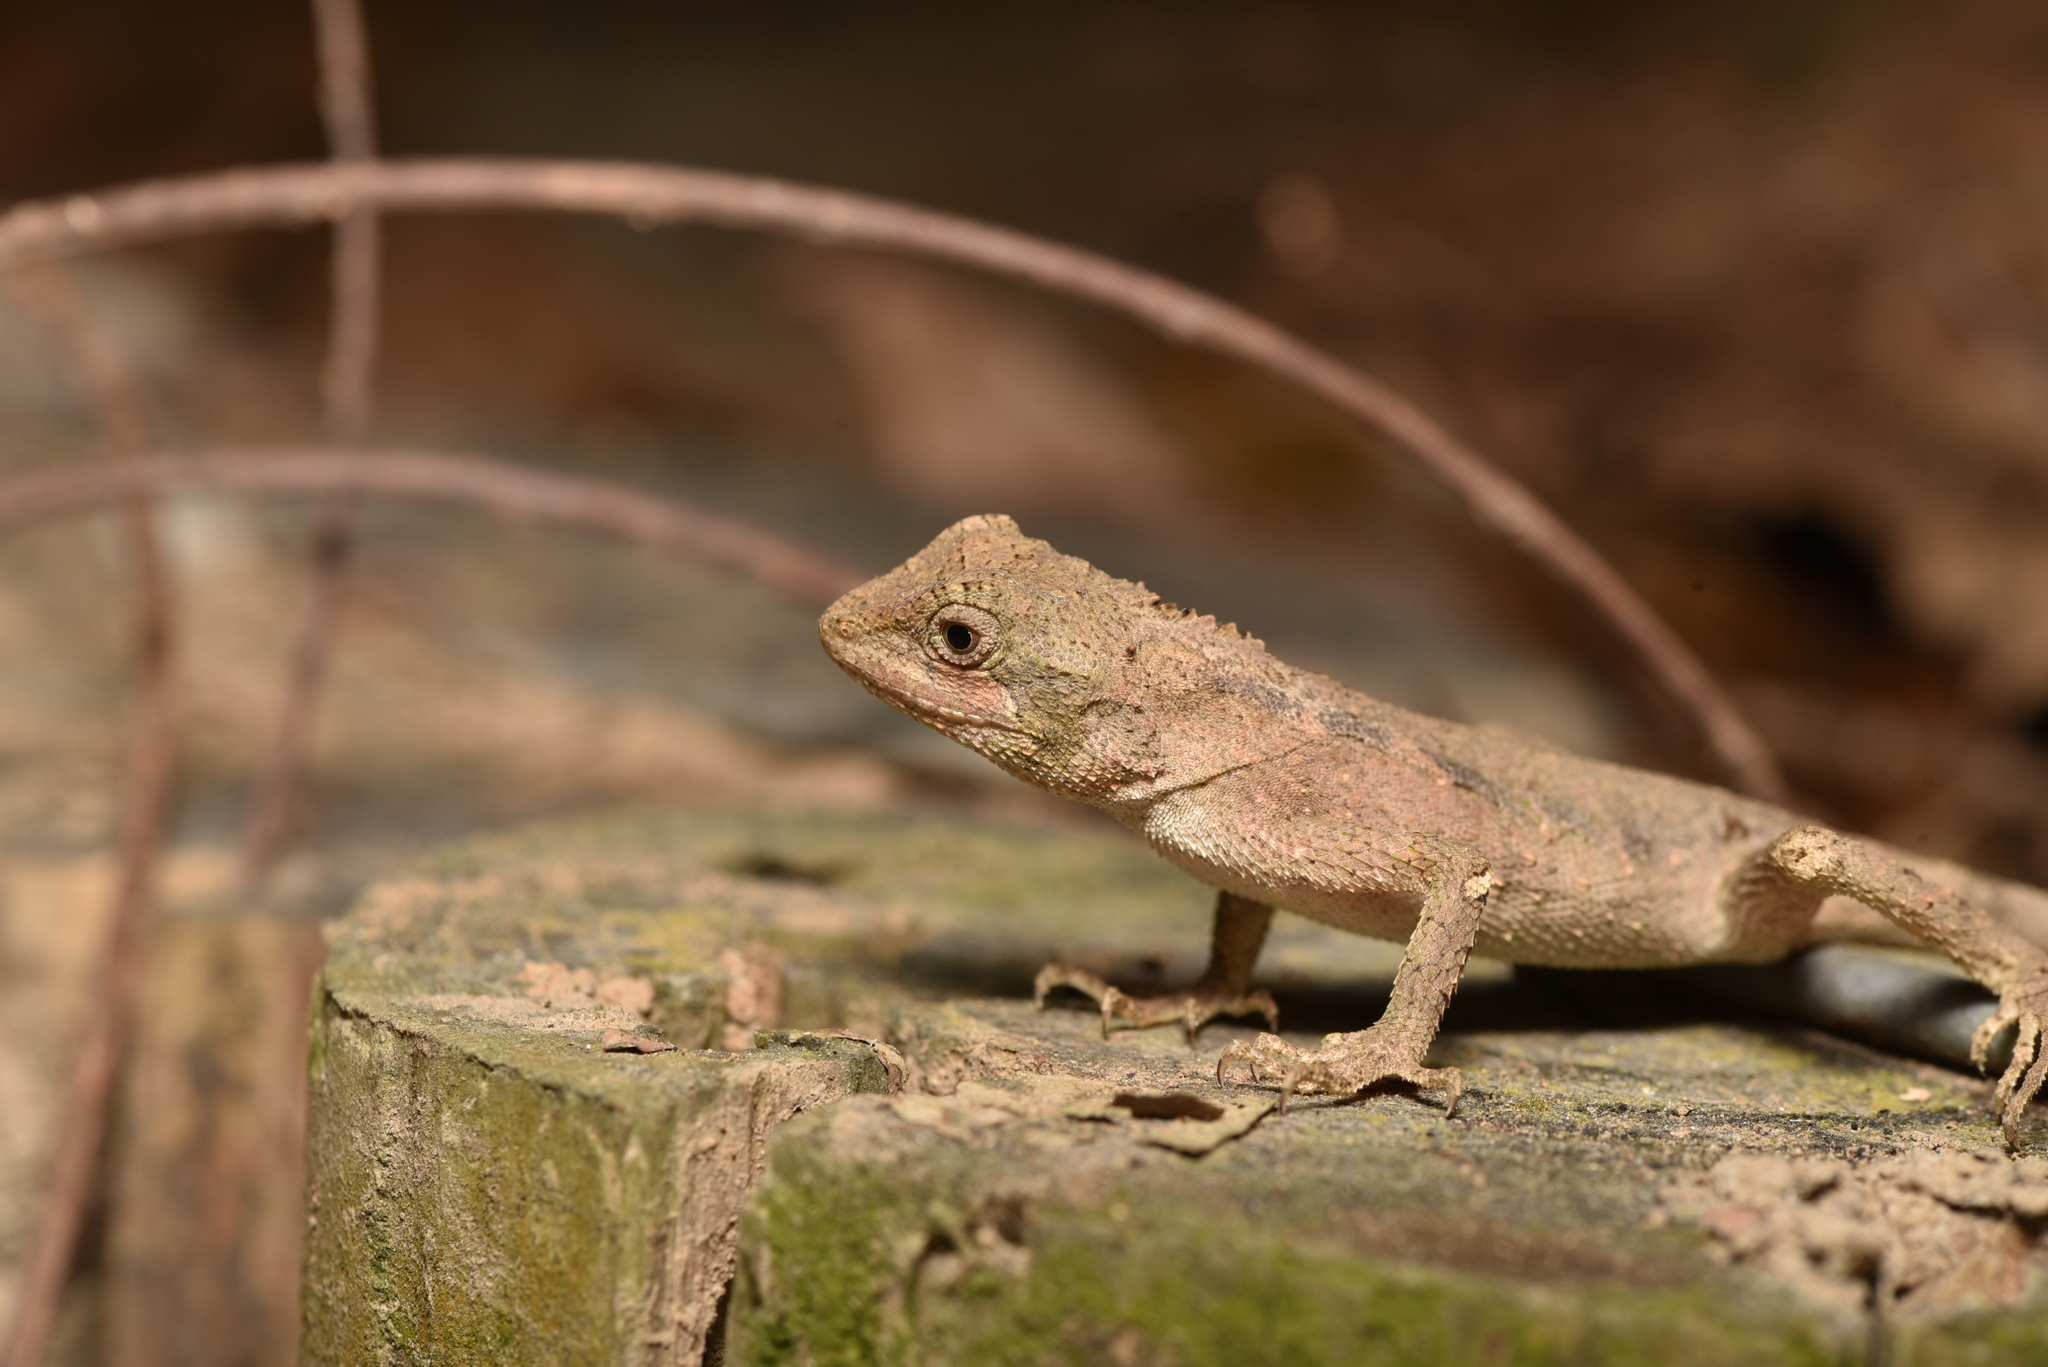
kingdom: Animalia
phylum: Chordata
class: Squamata
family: Agamidae
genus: Diploderma
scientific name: Diploderma swinhonis
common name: Taiwan japalure
